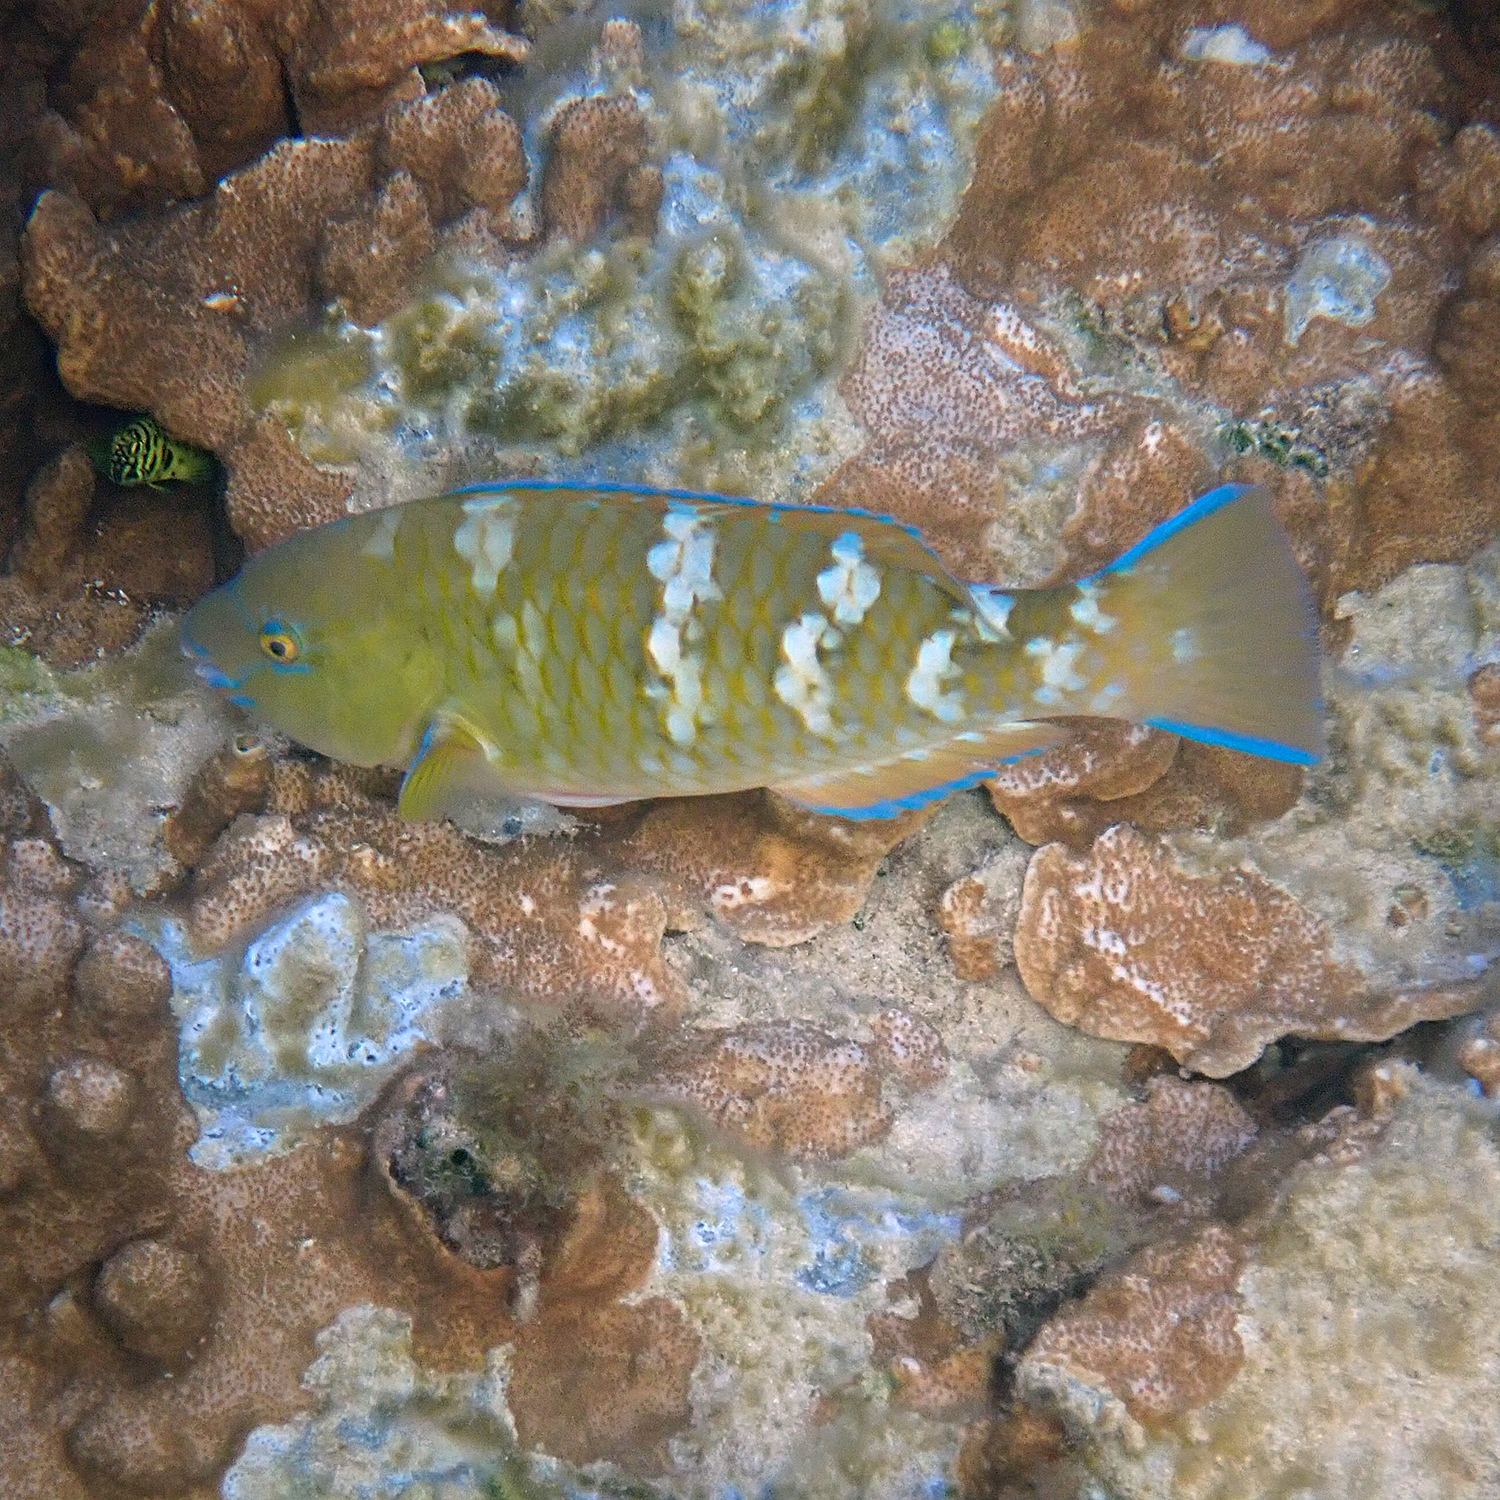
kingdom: Animalia
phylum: Chordata
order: Perciformes
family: Scaridae
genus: Scarus
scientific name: Scarus ghobban
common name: Blue-barred parrotfish
